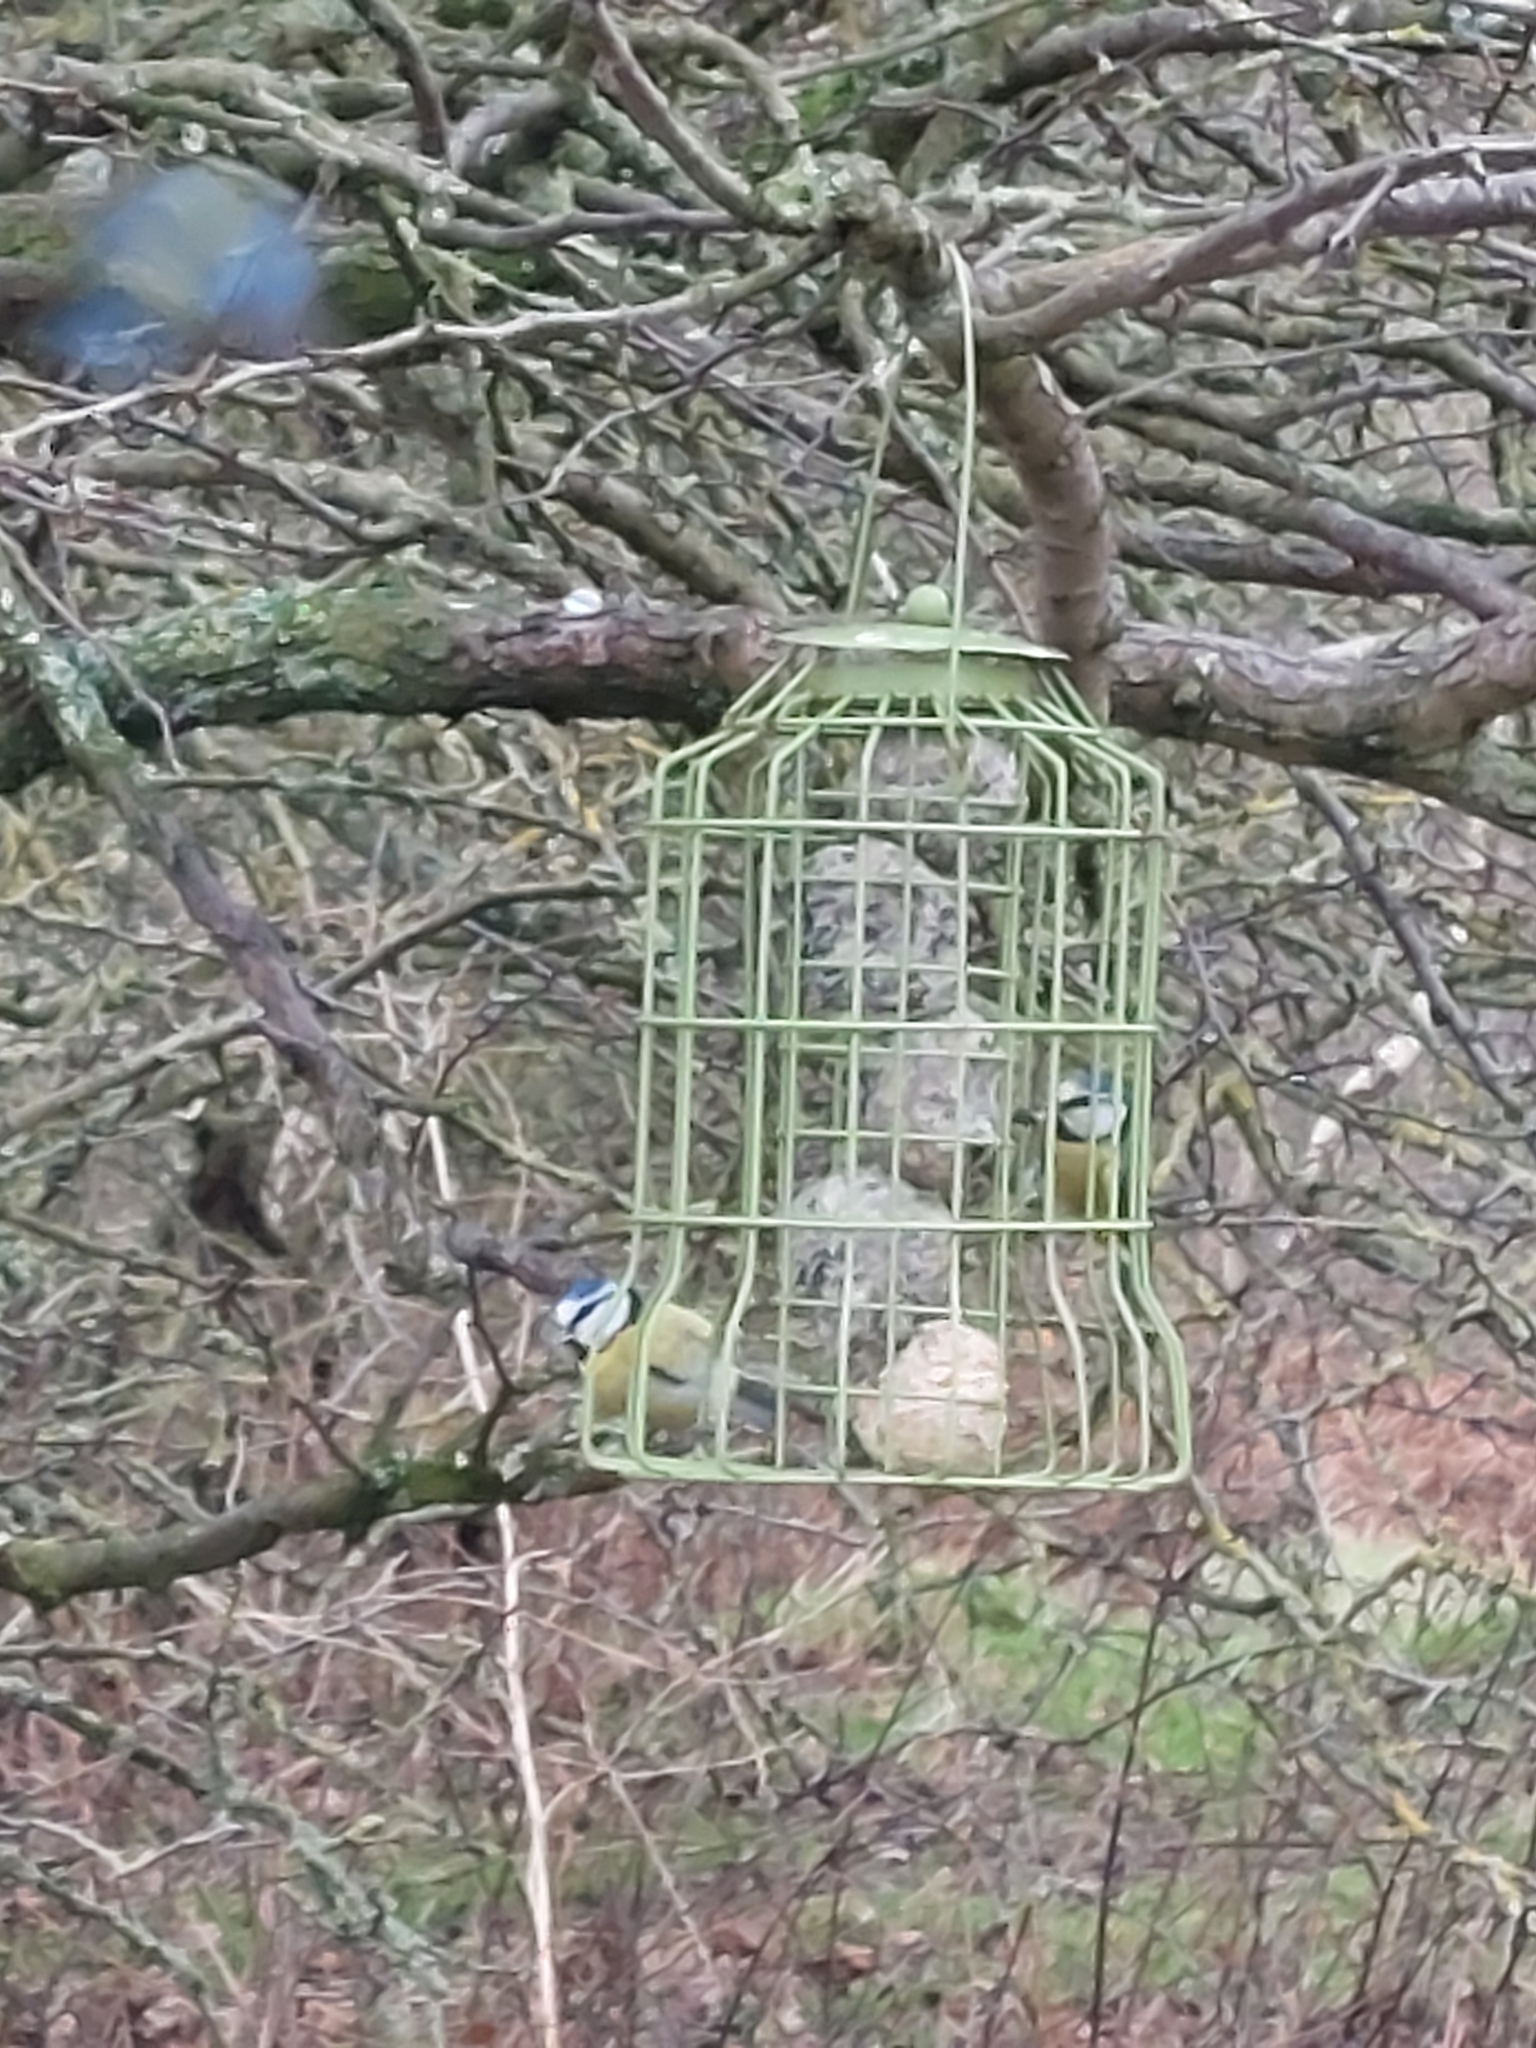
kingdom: Animalia
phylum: Chordata
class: Aves
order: Passeriformes
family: Paridae
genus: Cyanistes
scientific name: Cyanistes caeruleus
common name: Eurasian blue tit
